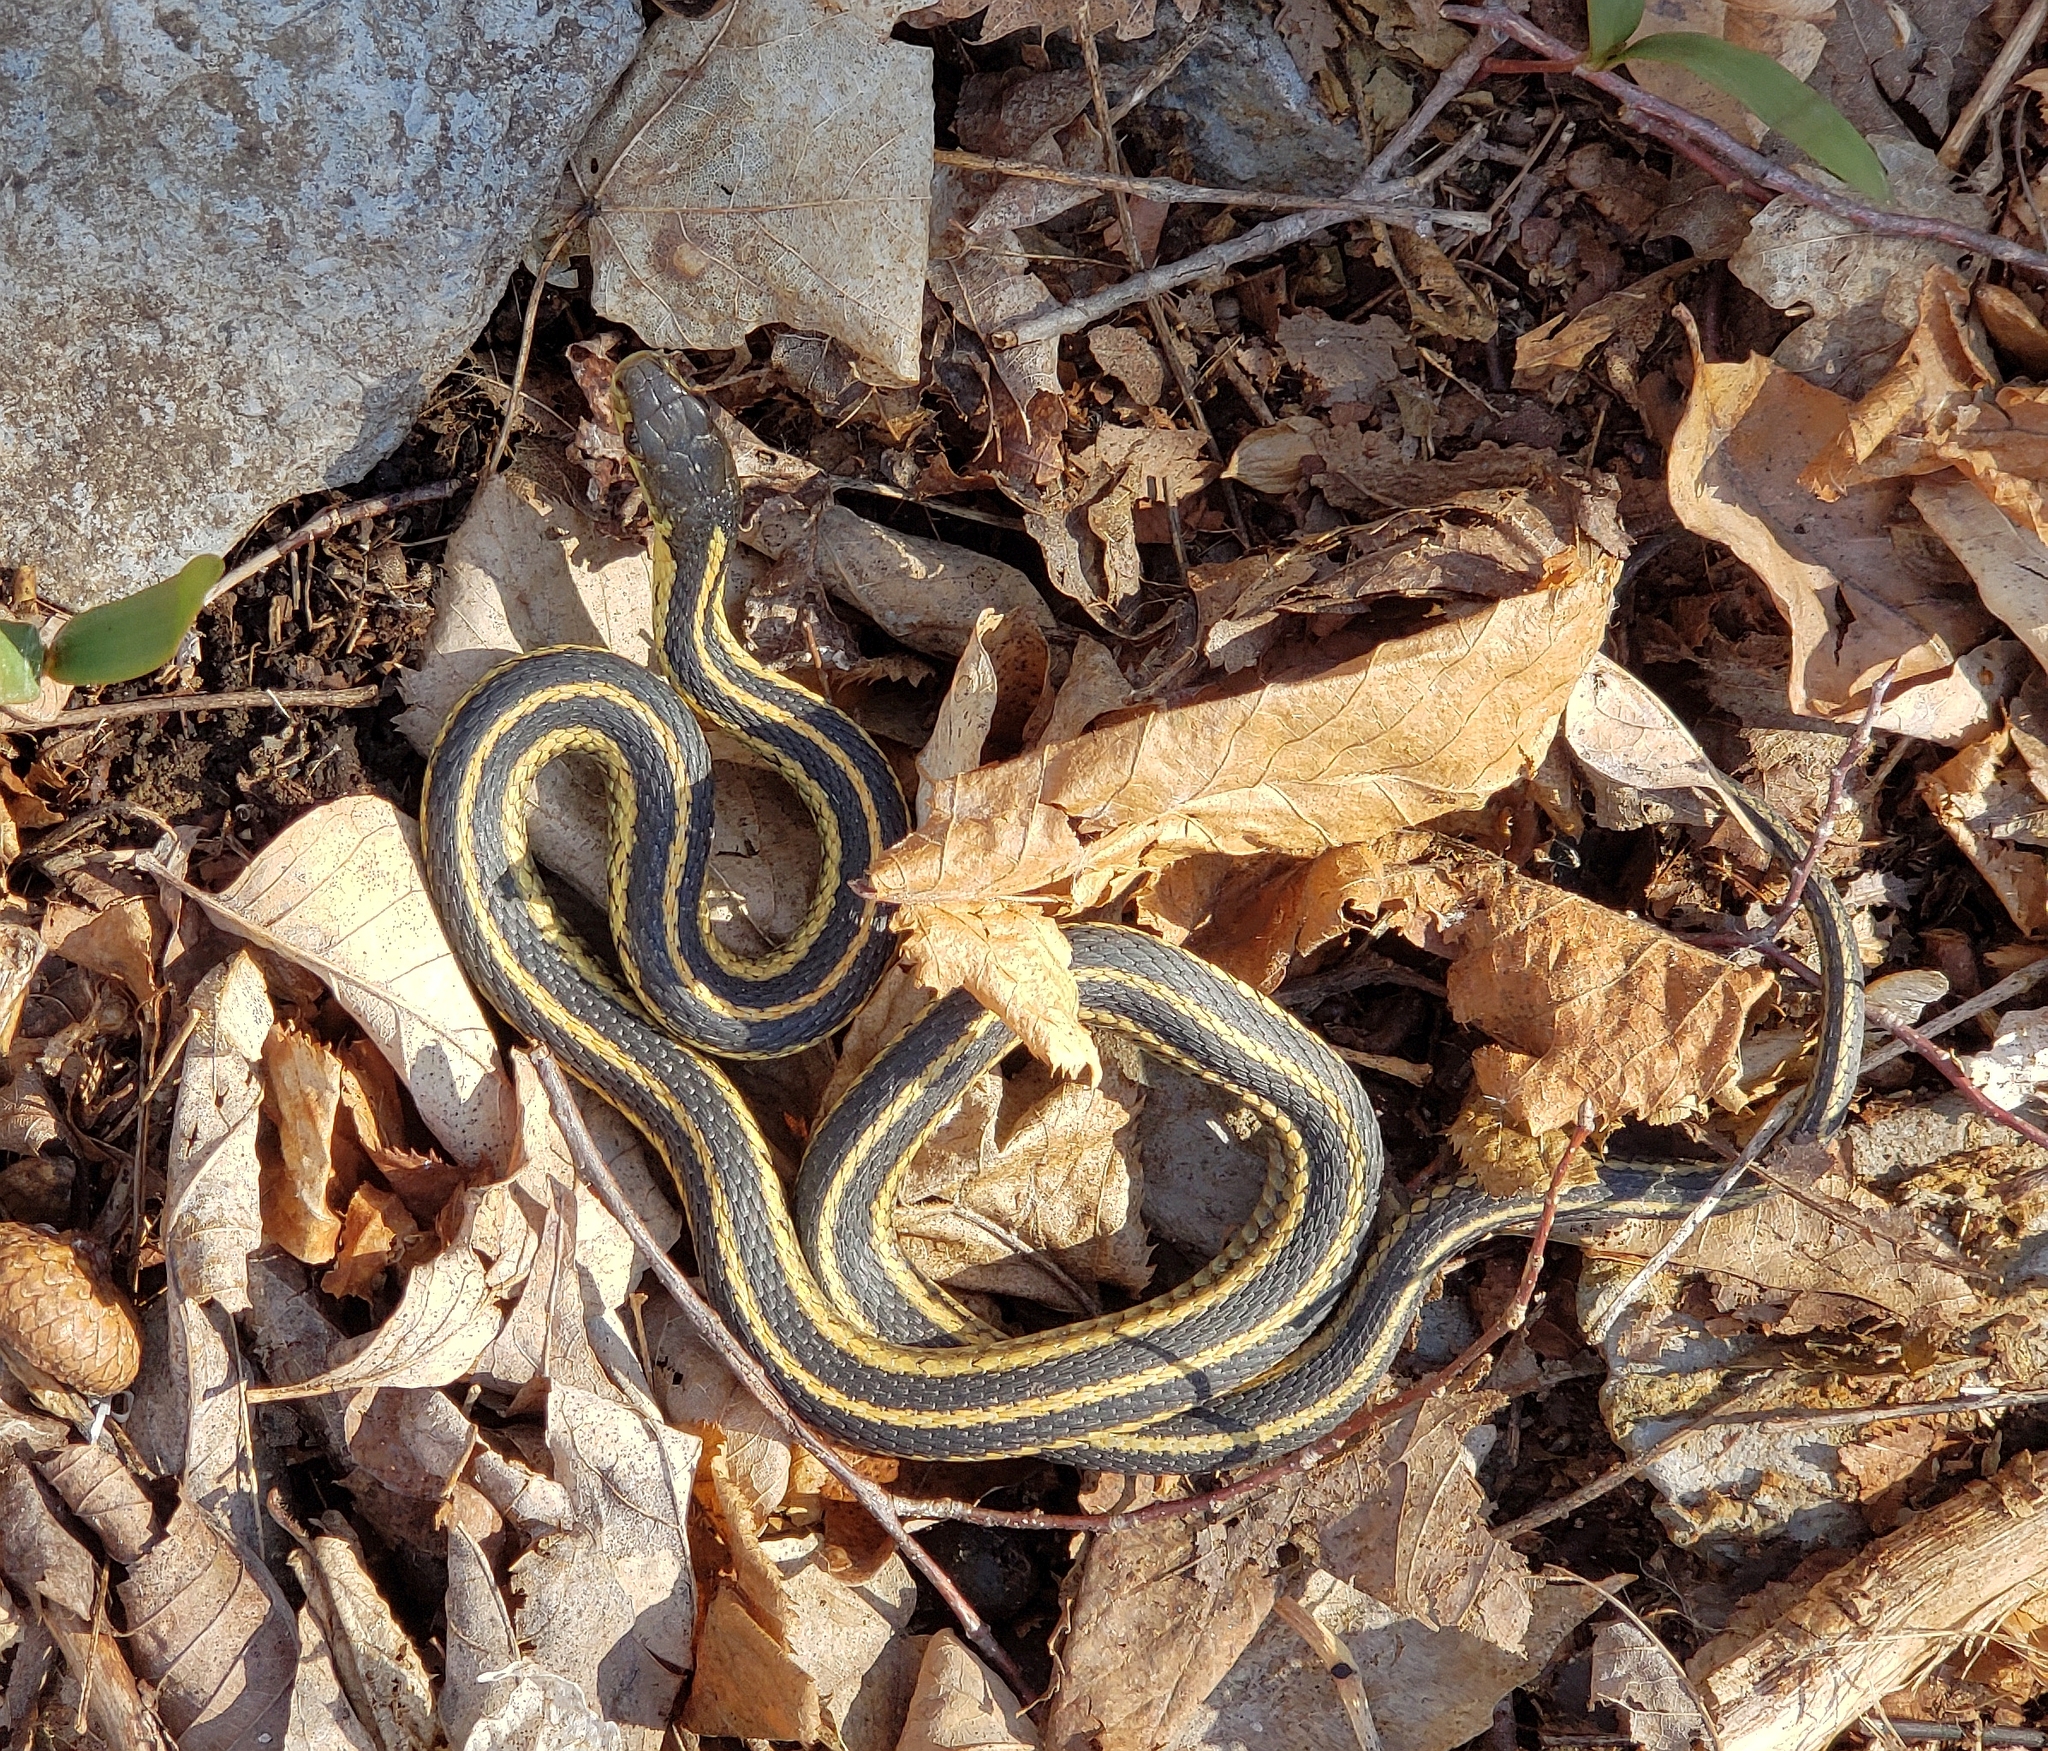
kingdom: Animalia
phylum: Chordata
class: Squamata
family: Colubridae
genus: Thamnophis
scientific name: Thamnophis sirtalis
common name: Common garter snake
